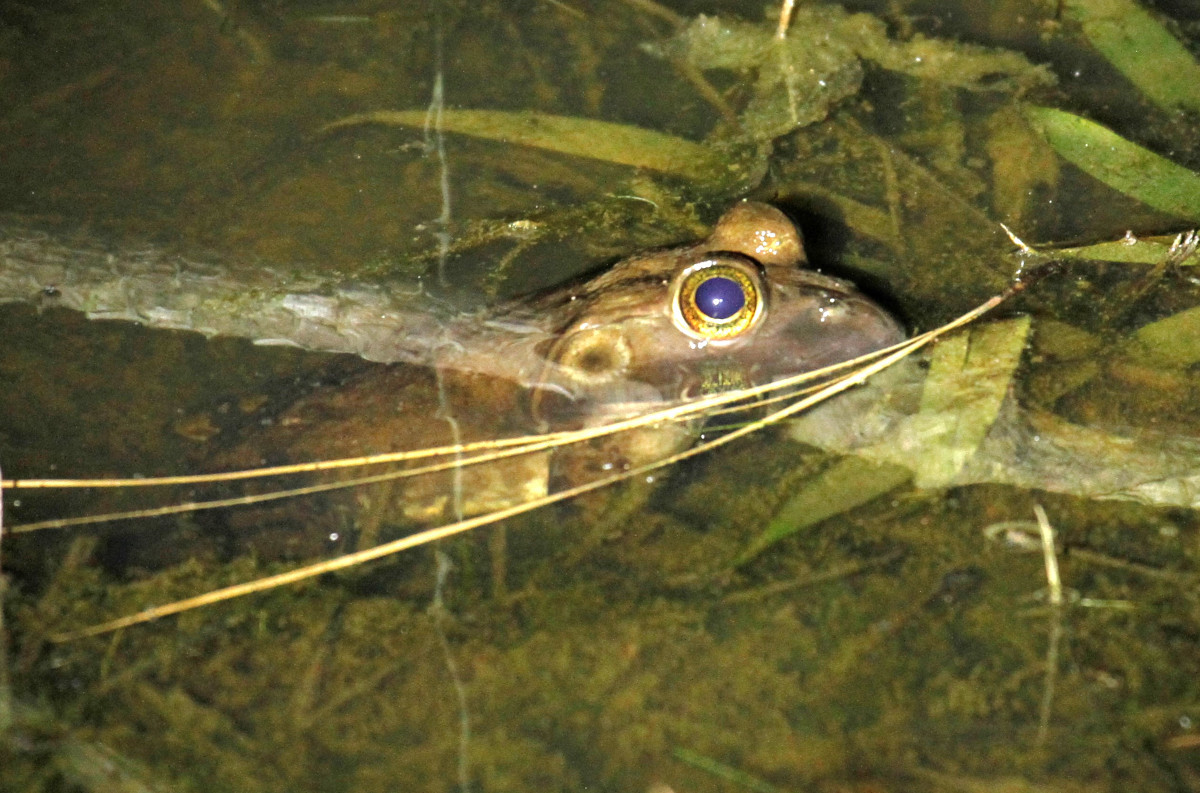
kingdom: Animalia
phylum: Chordata
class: Amphibia
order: Anura
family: Ranidae
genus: Lithobates
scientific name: Lithobates catesbeianus
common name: American bullfrog
